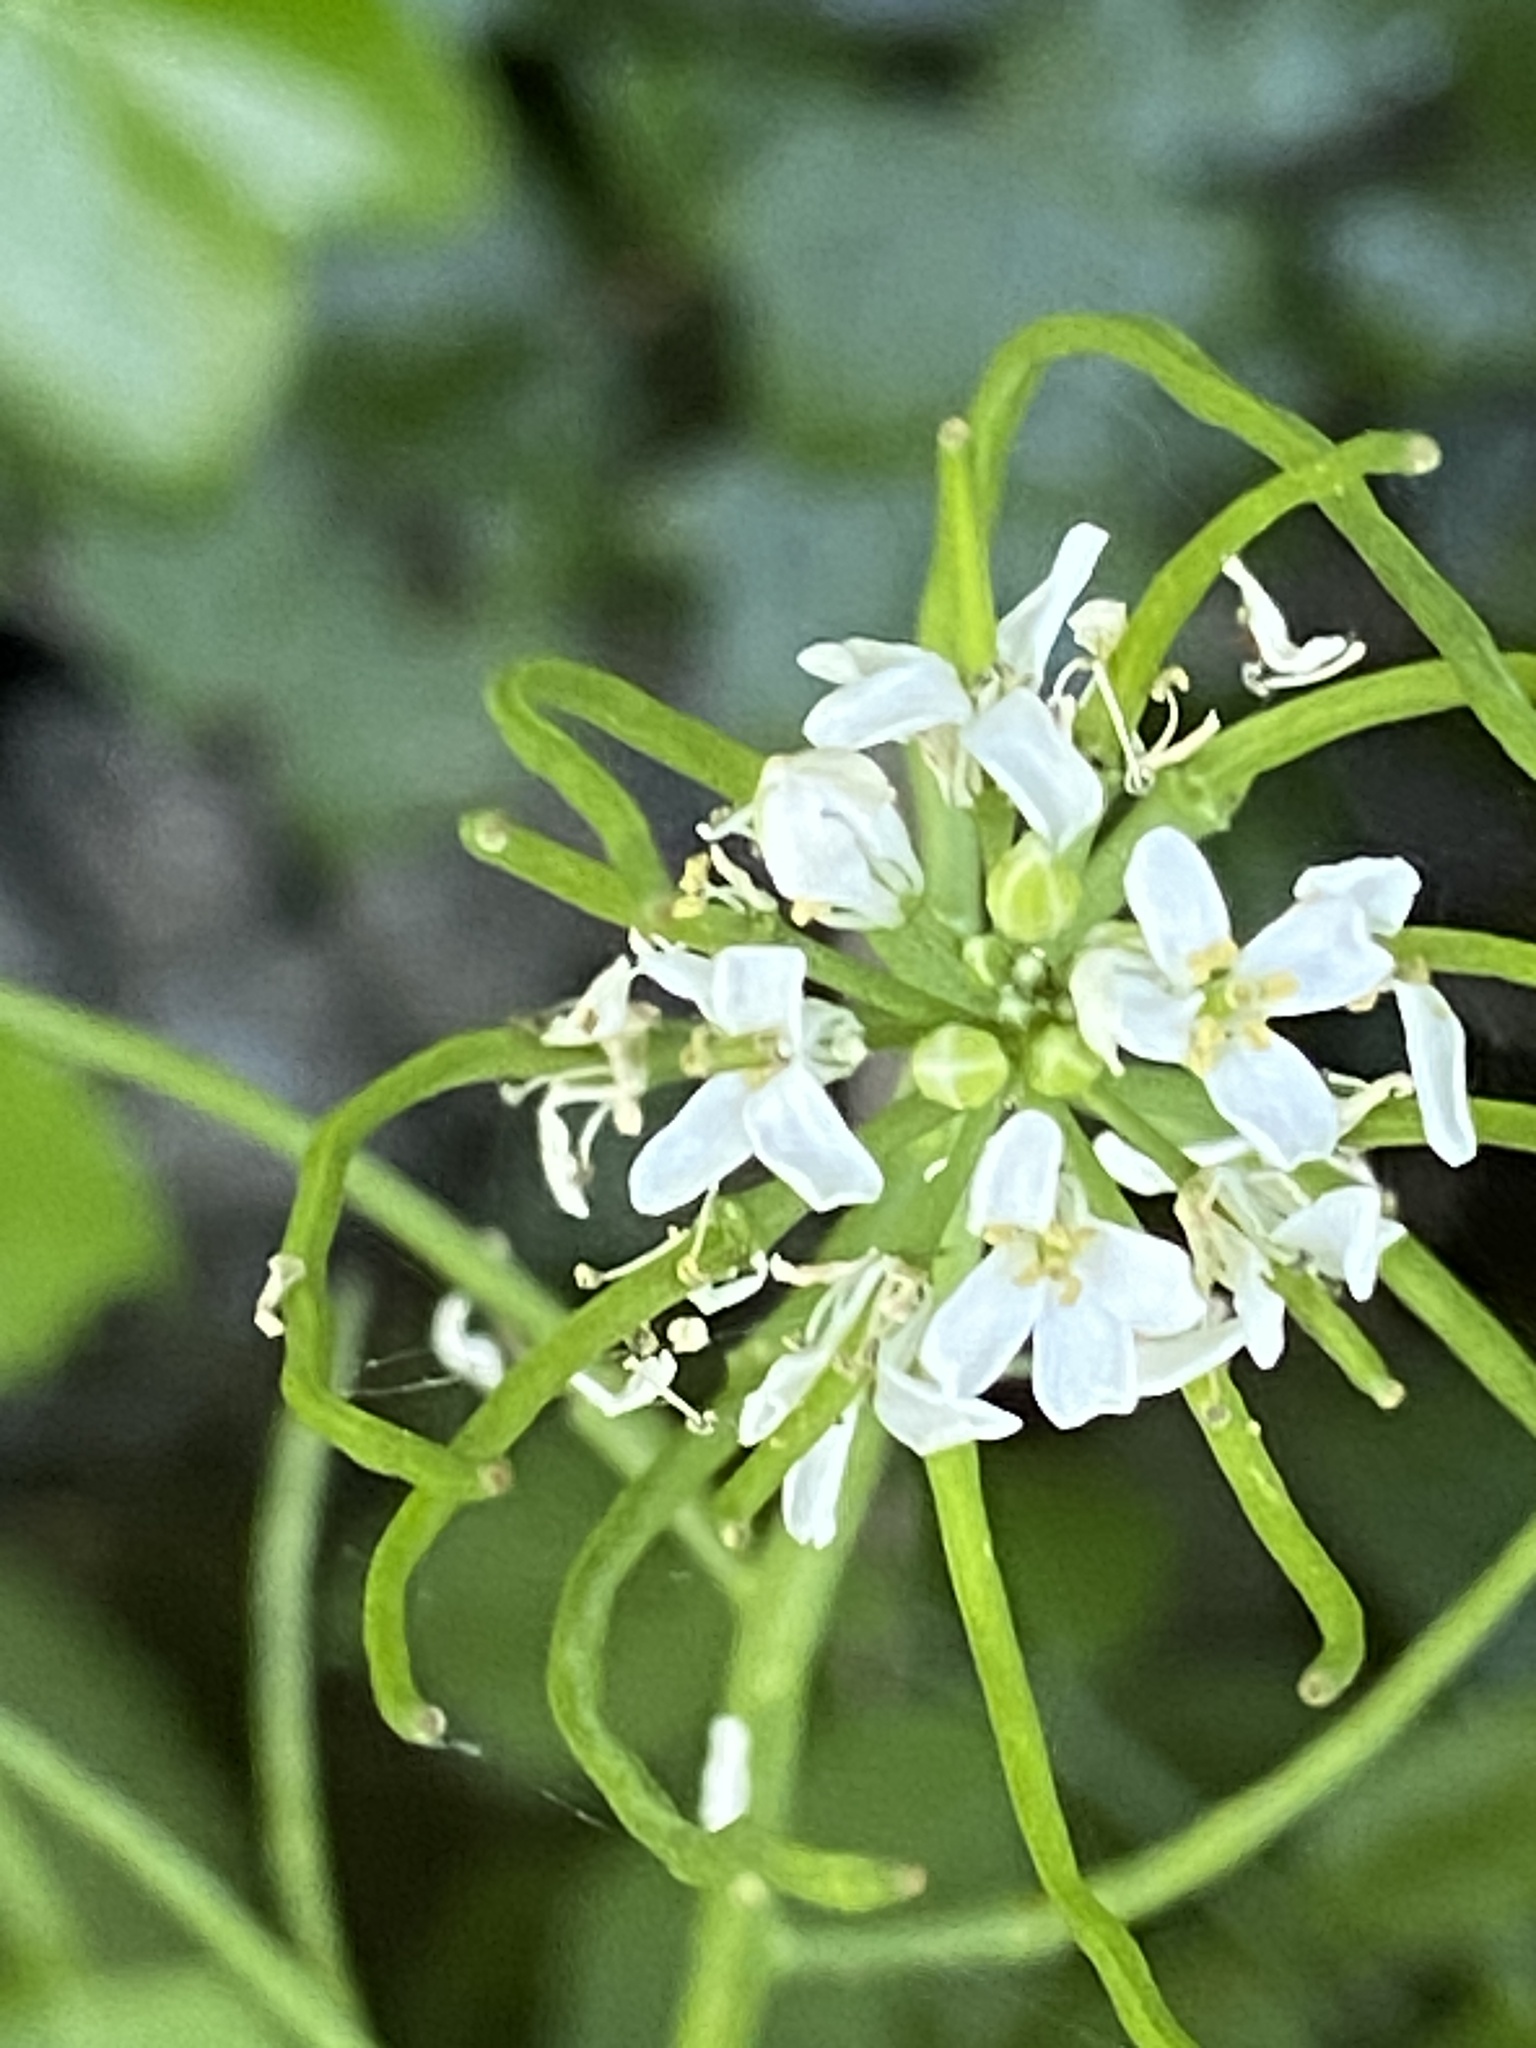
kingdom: Plantae
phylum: Tracheophyta
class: Magnoliopsida
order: Brassicales
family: Brassicaceae
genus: Alliaria
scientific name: Alliaria petiolata
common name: Garlic mustard
